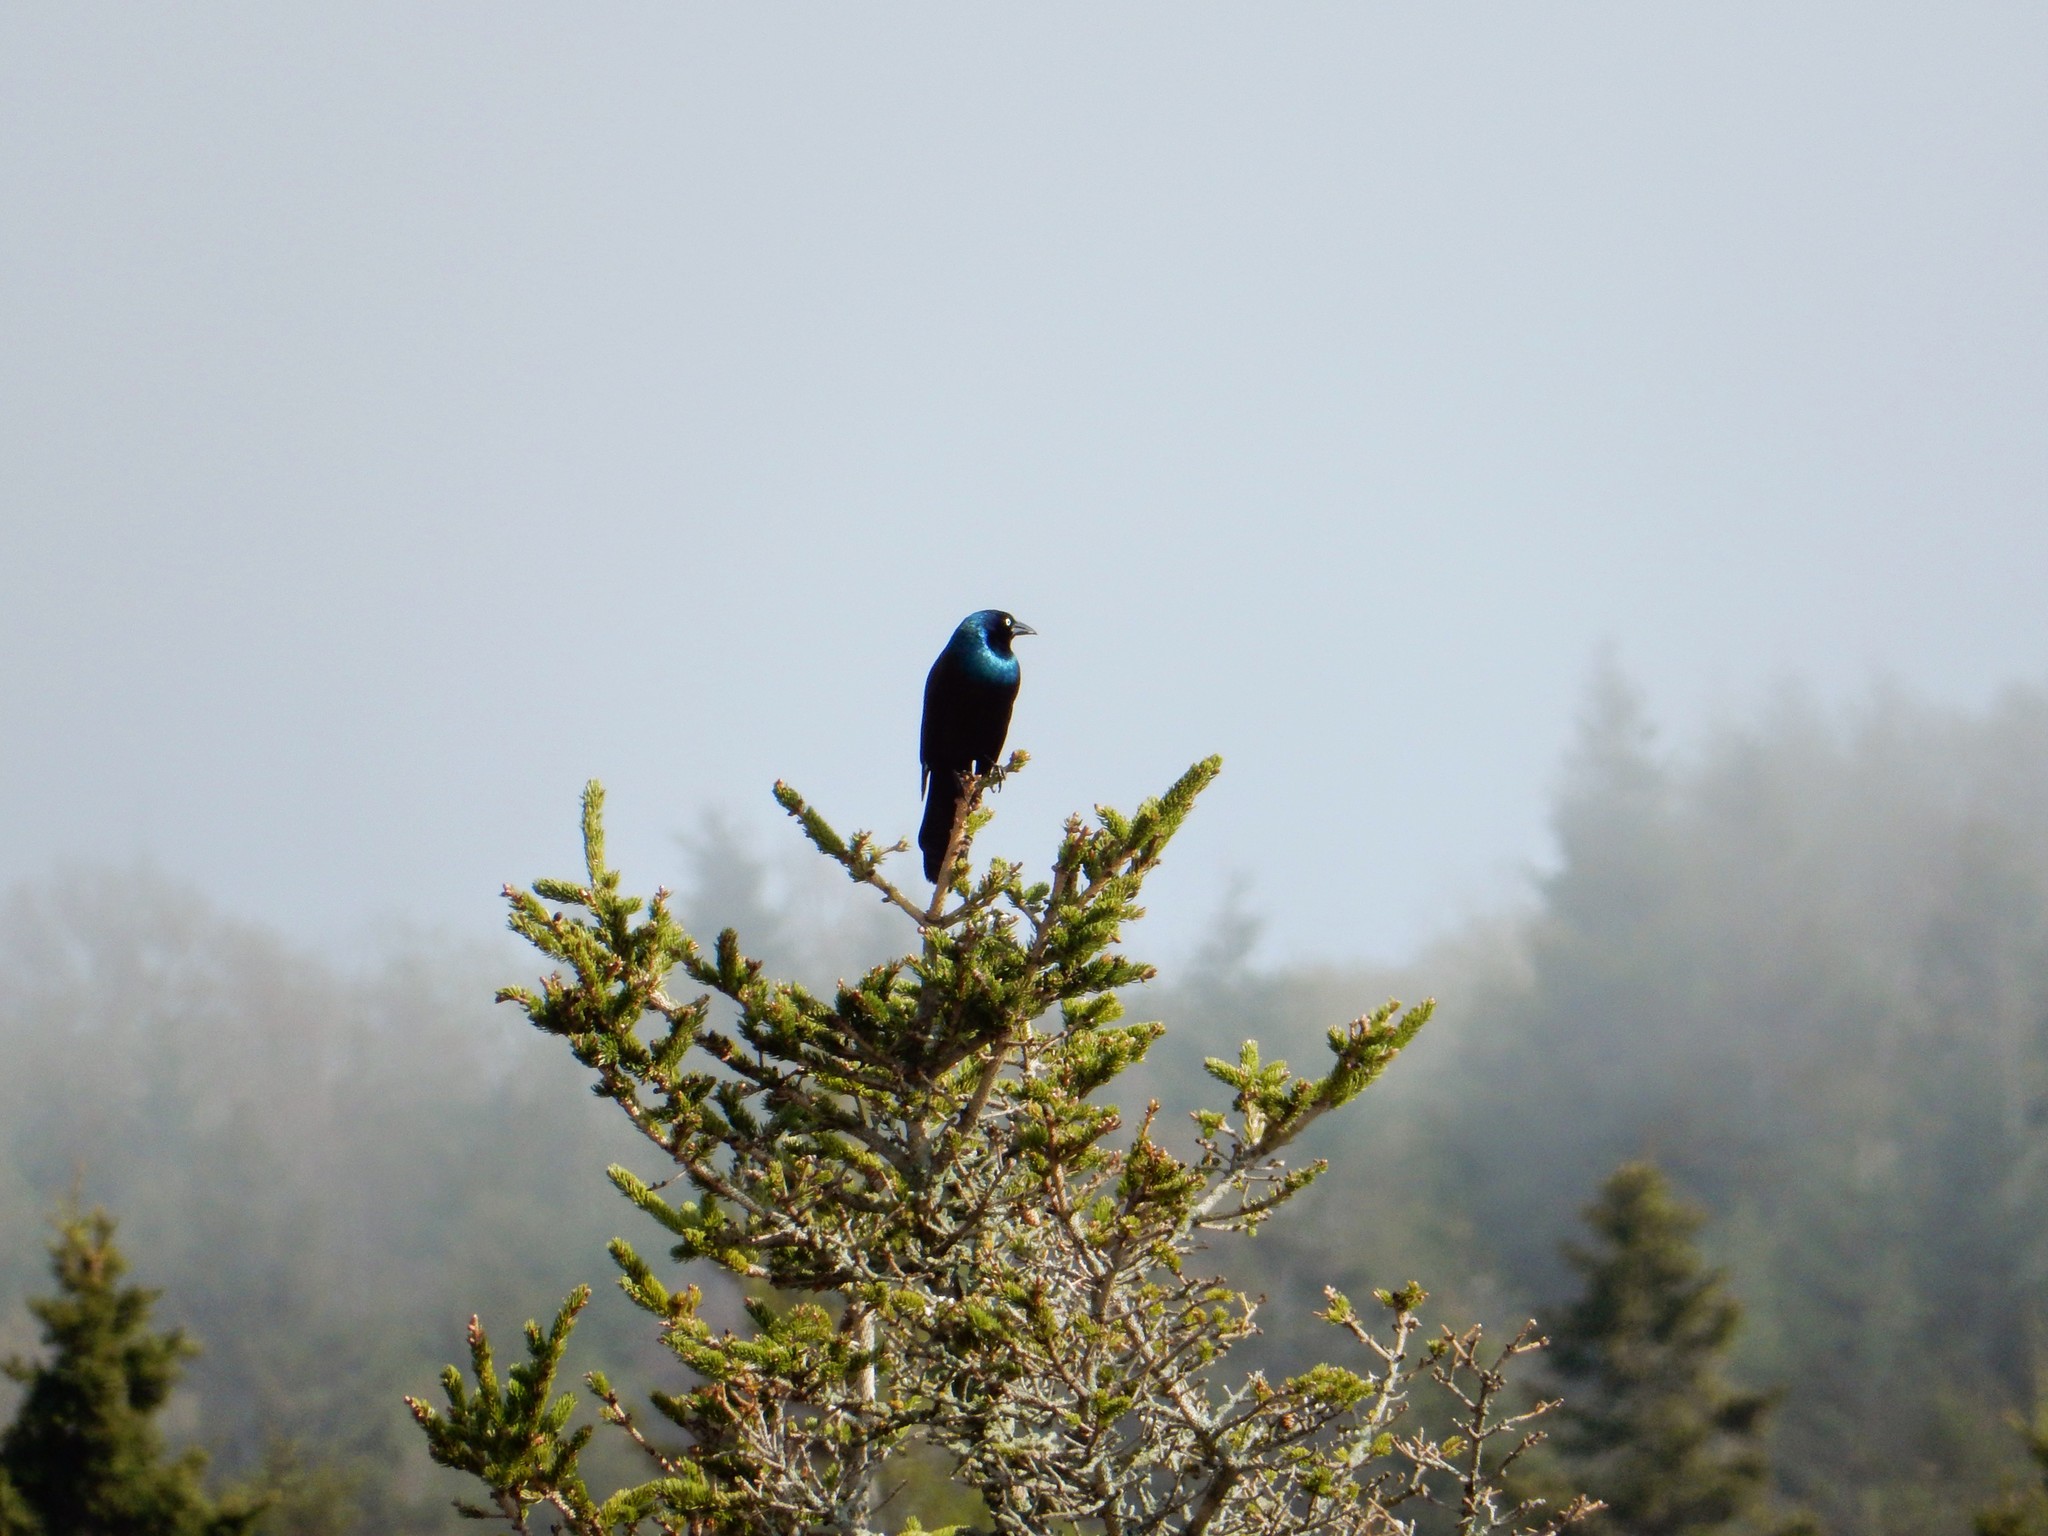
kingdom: Animalia
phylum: Chordata
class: Aves
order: Passeriformes
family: Icteridae
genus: Quiscalus
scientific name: Quiscalus quiscula
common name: Common grackle
